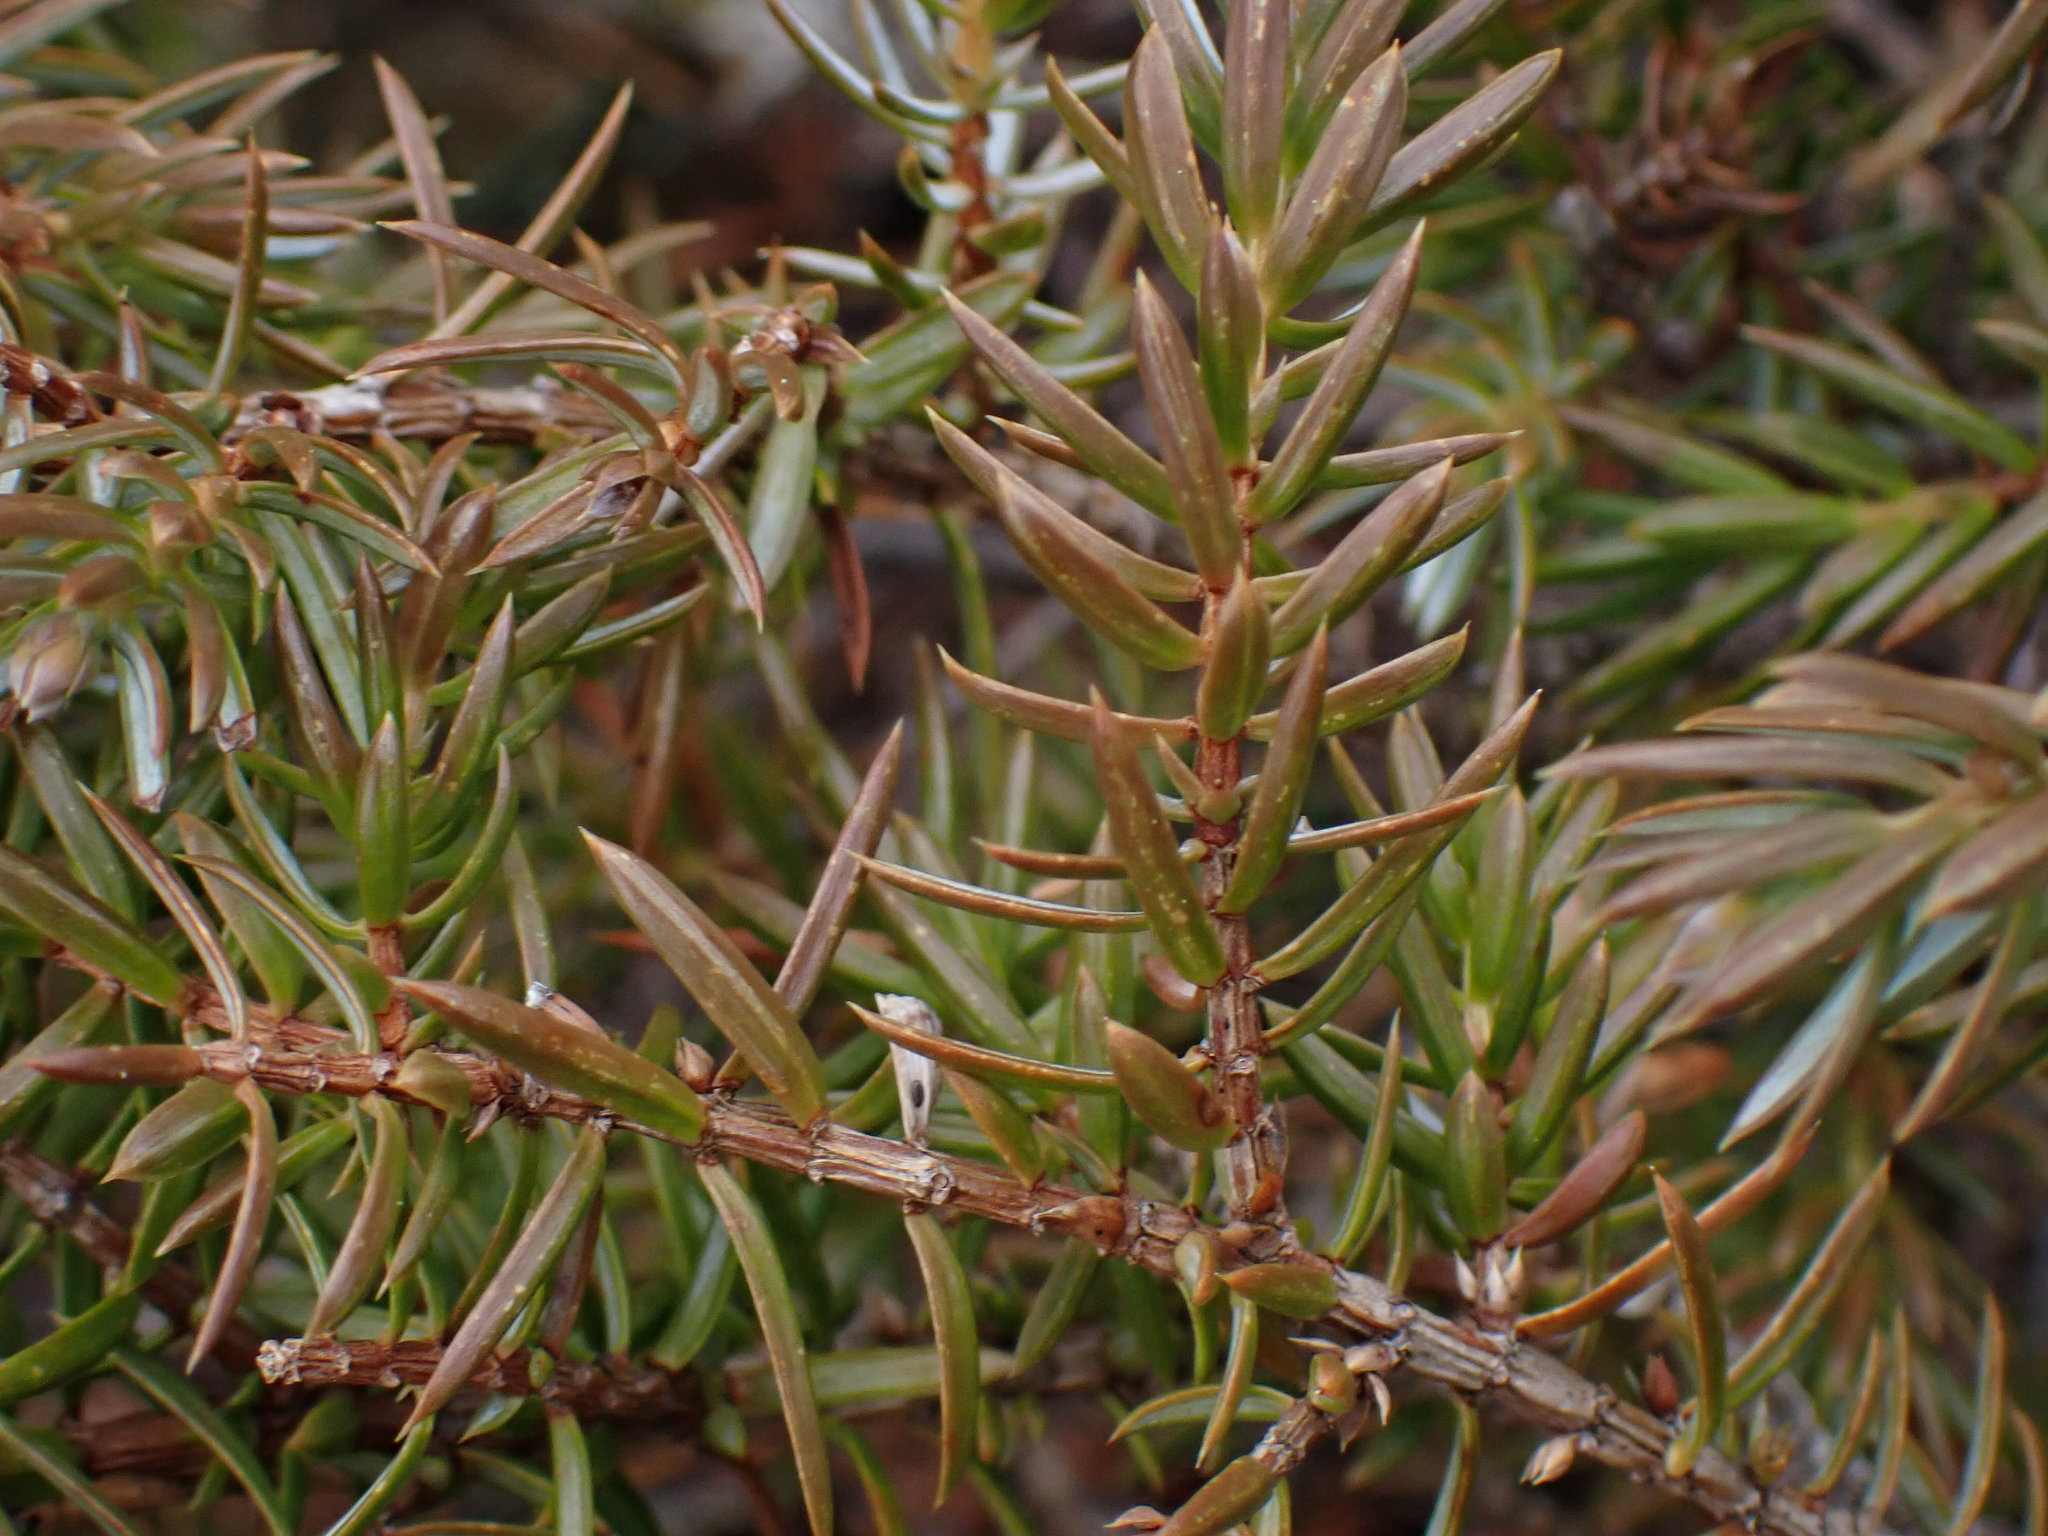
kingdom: Plantae
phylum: Tracheophyta
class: Pinopsida
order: Pinales
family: Cupressaceae
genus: Juniperus
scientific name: Juniperus communis
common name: Common juniper
